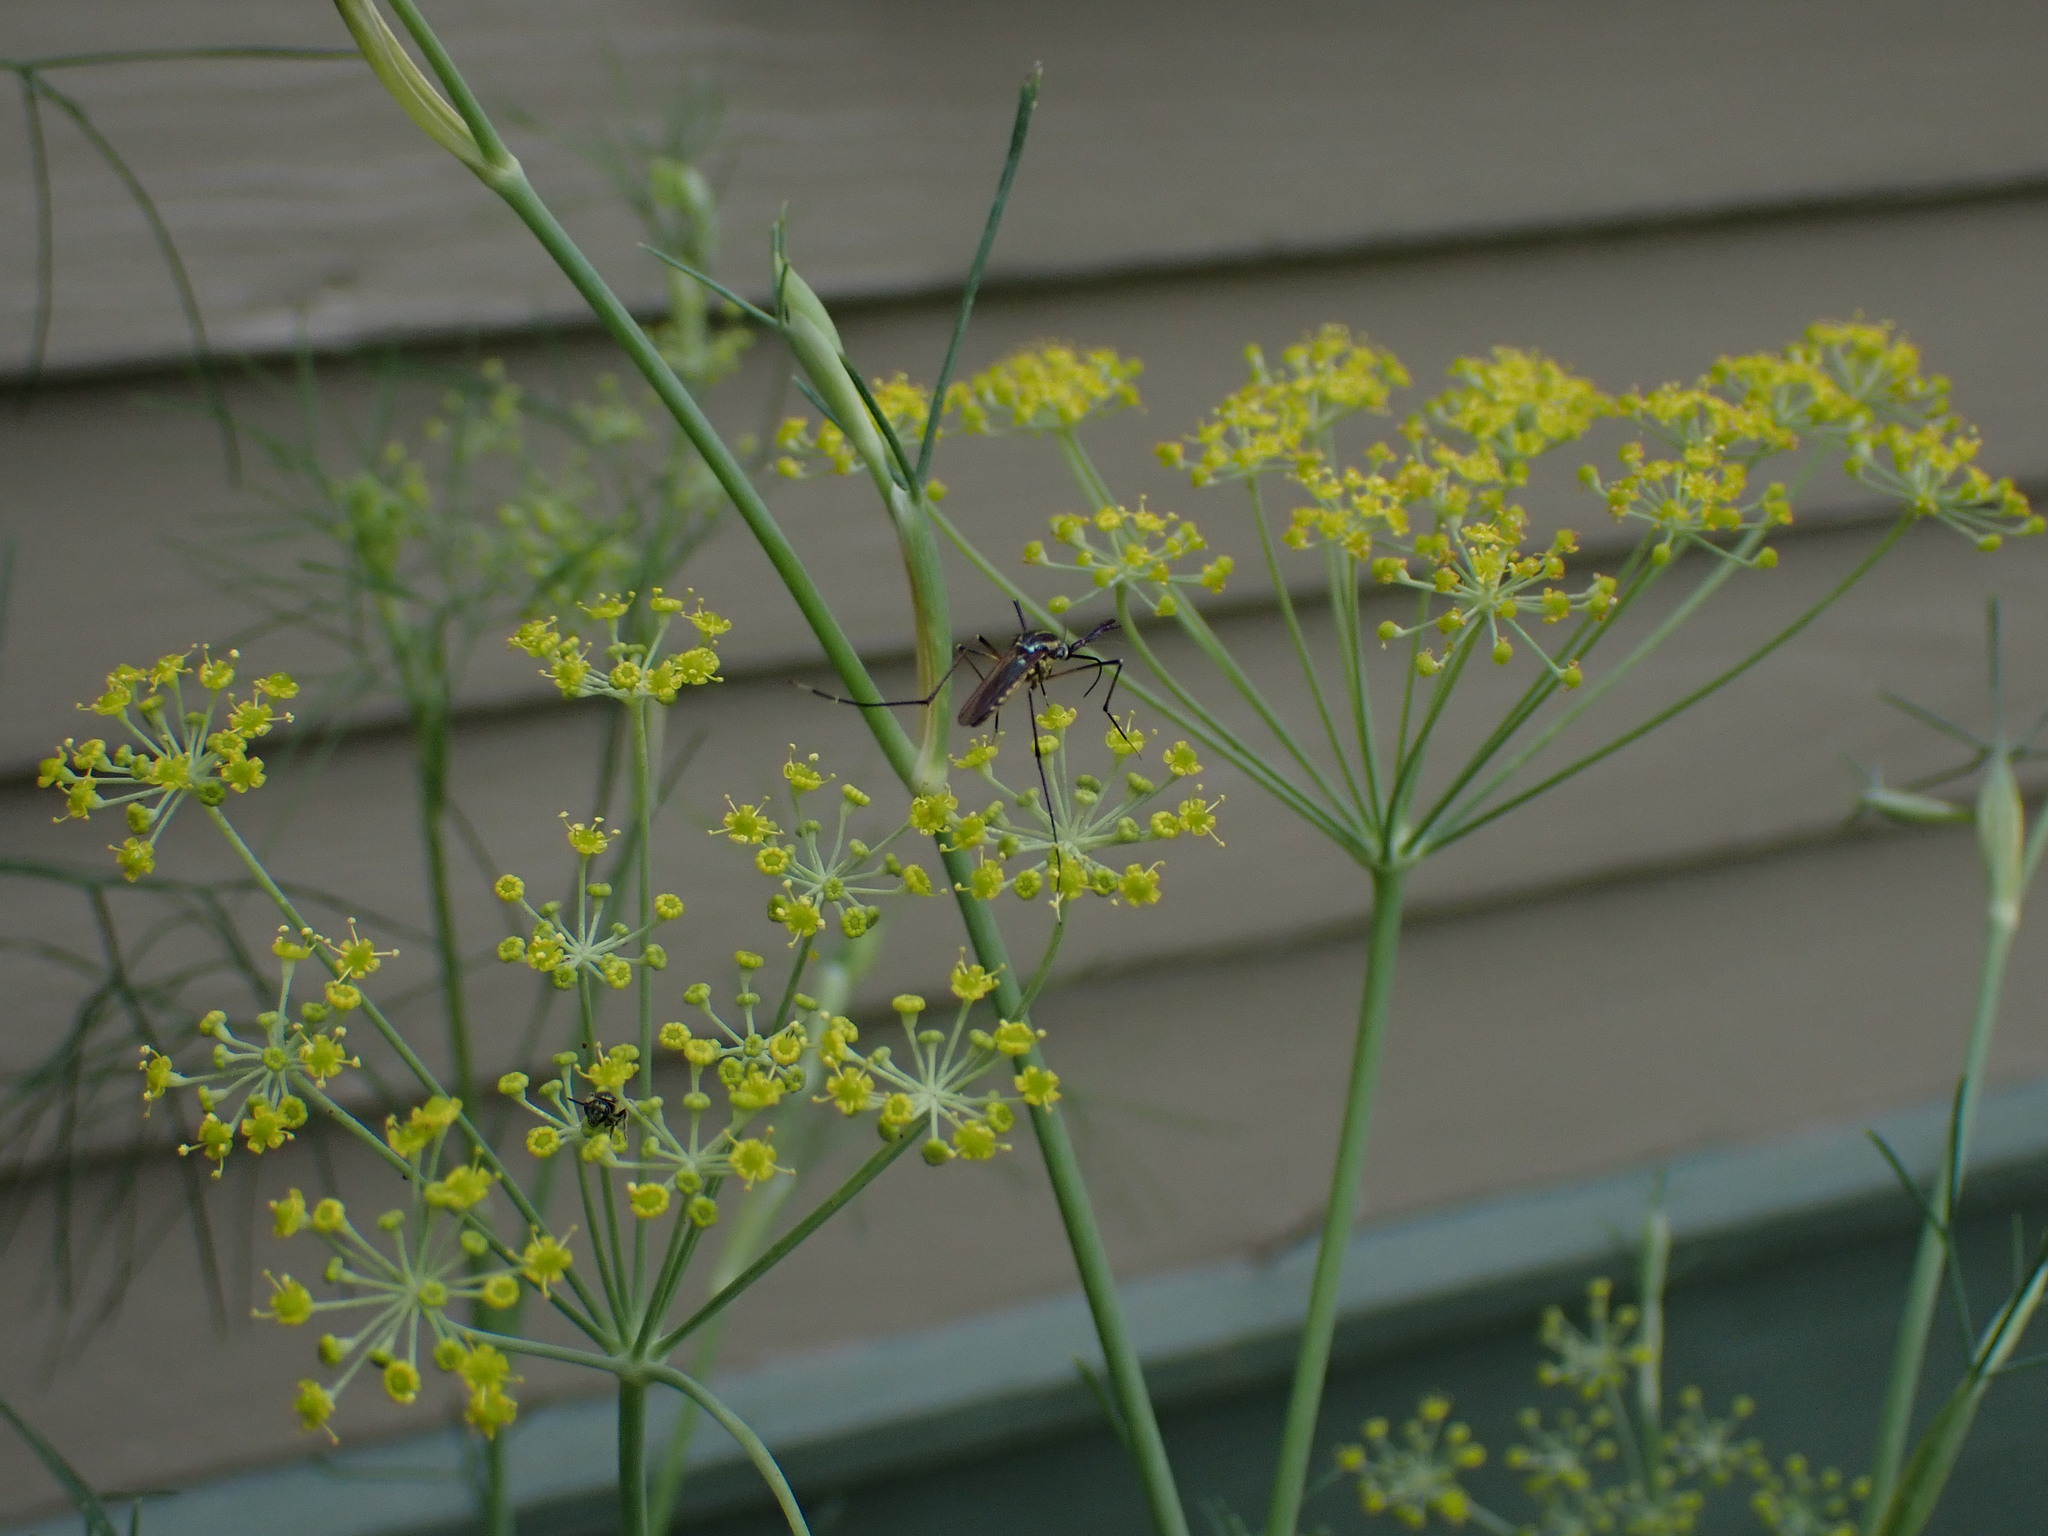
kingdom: Animalia
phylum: Arthropoda
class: Insecta
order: Diptera
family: Culicidae
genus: Toxorhynchites
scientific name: Toxorhynchites rutilus
